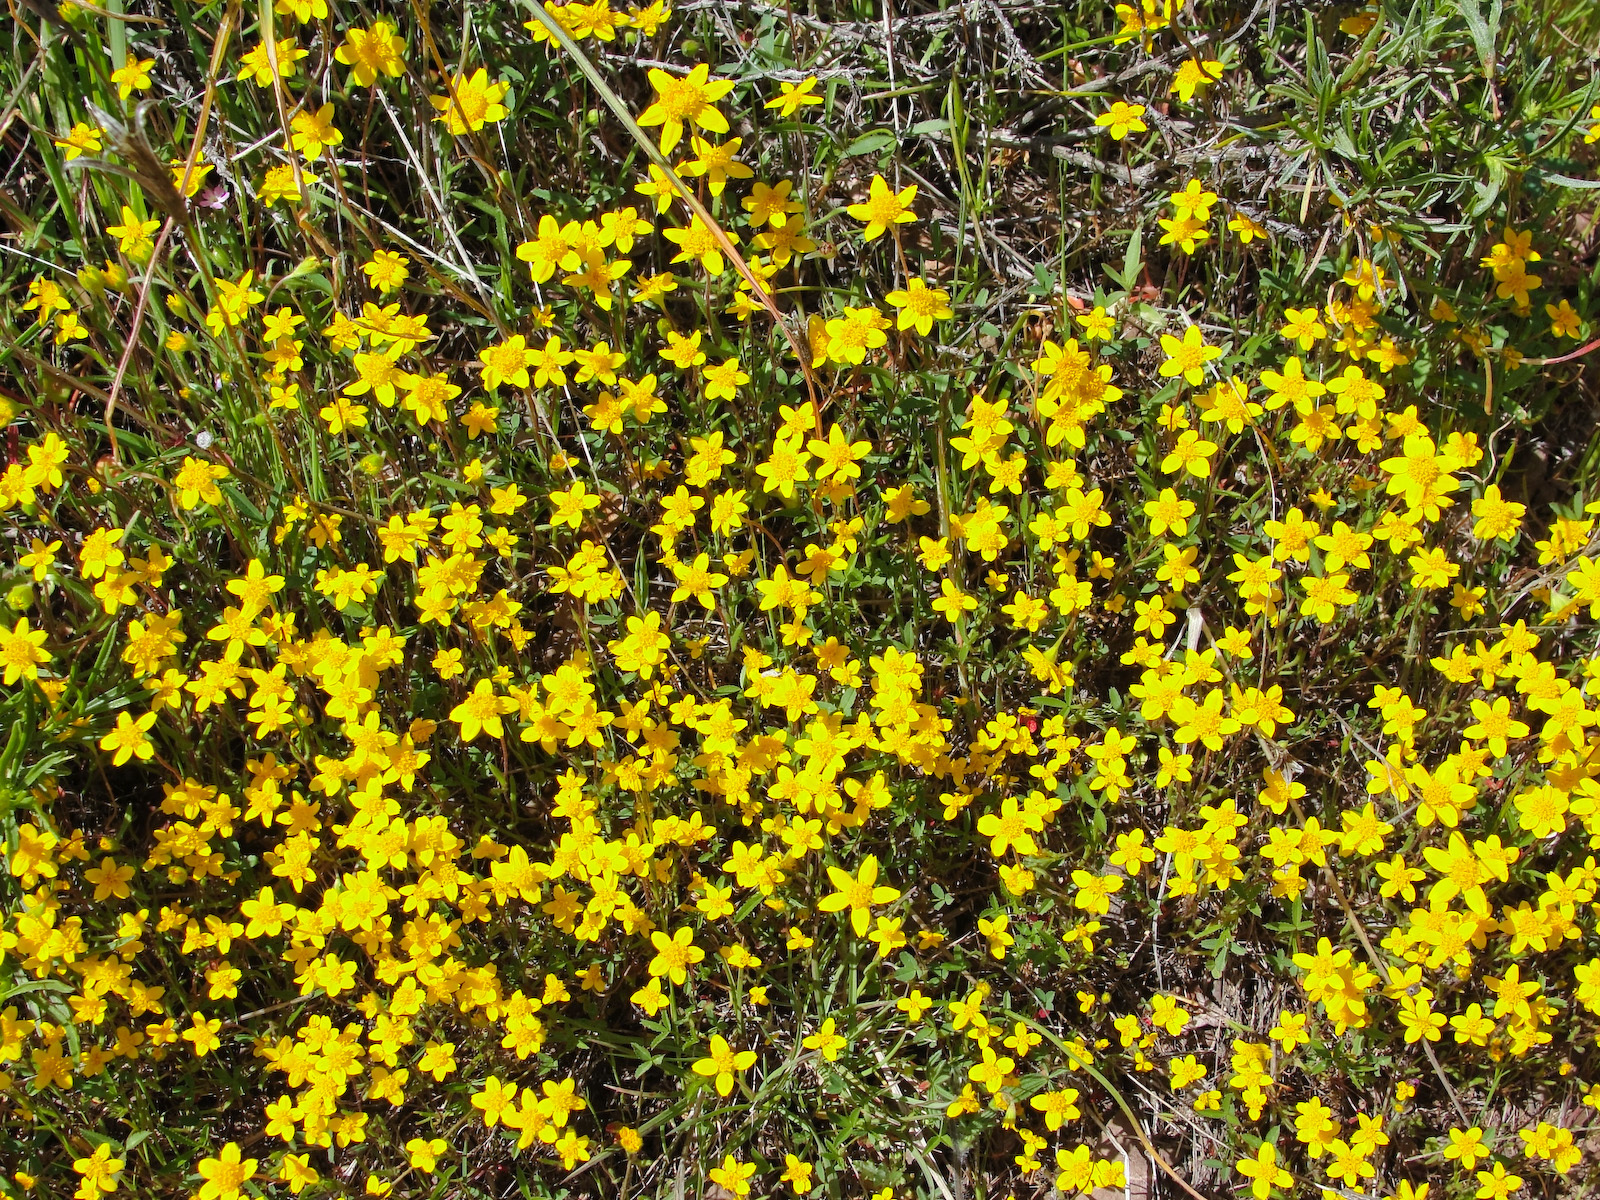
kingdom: Plantae
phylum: Tracheophyta
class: Magnoliopsida
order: Asterales
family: Asteraceae
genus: Lasthenia
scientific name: Lasthenia californica
